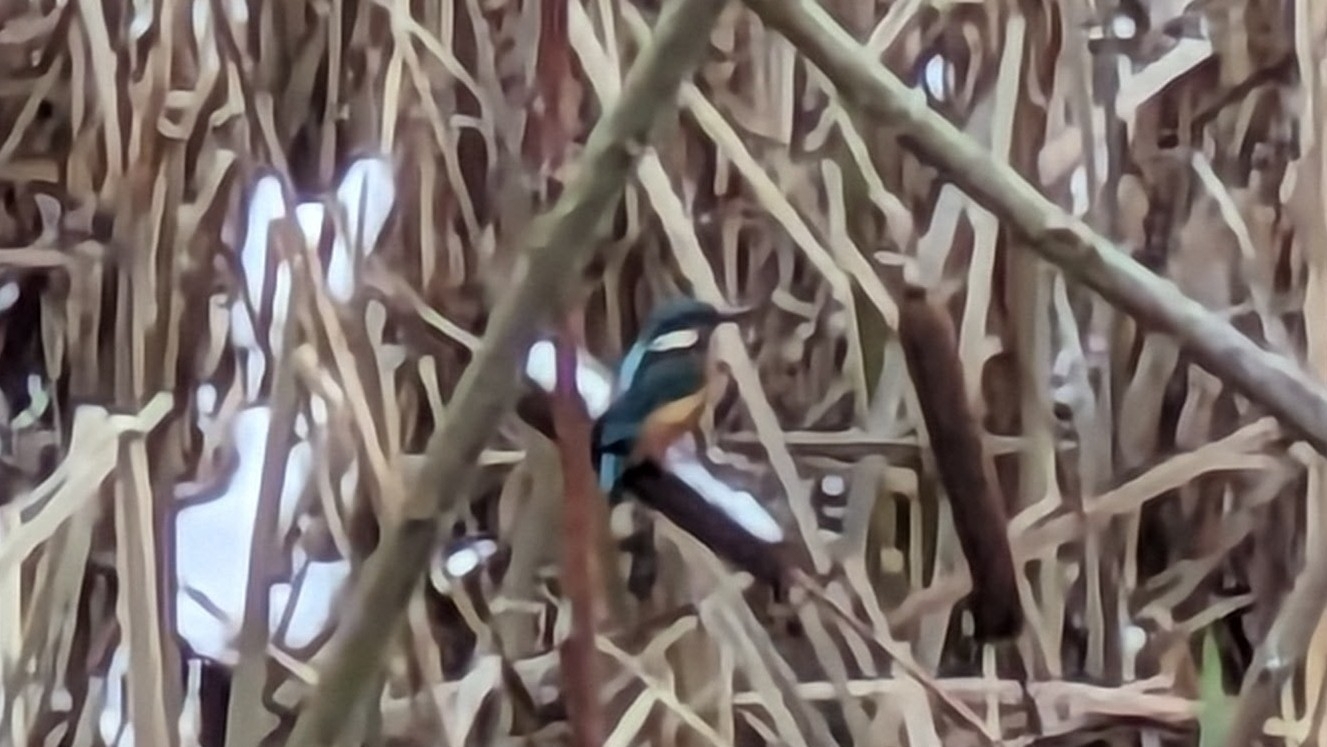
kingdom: Animalia
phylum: Chordata
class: Aves
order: Coraciiformes
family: Alcedinidae
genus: Alcedo
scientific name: Alcedo atthis
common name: Common kingfisher
